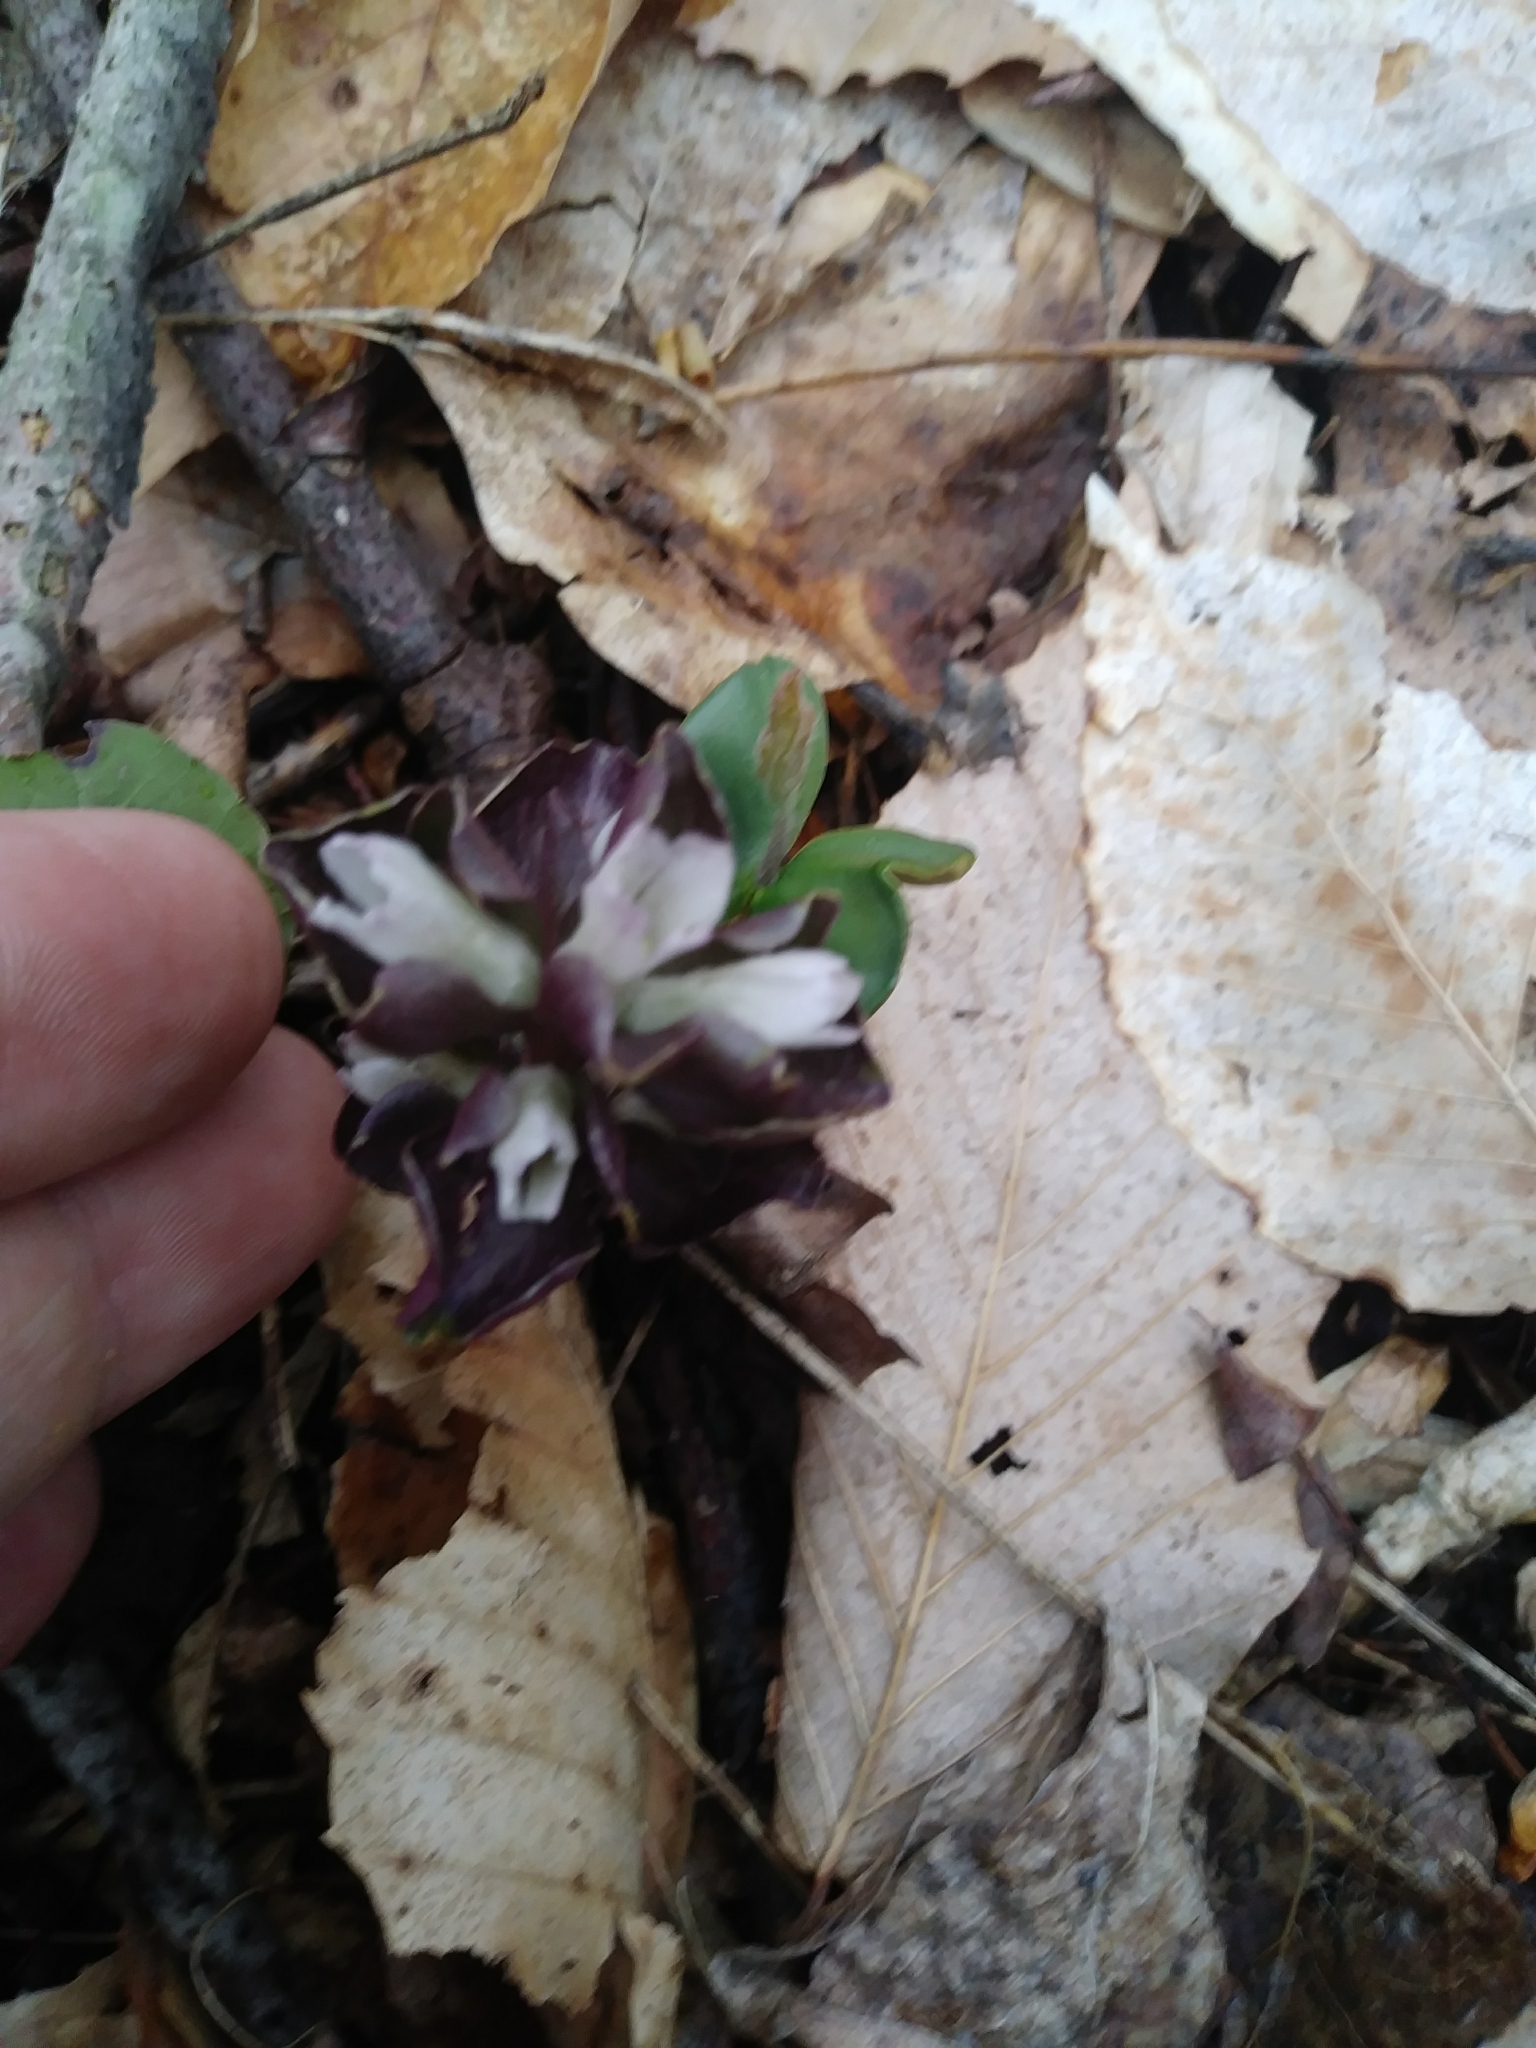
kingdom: Plantae
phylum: Tracheophyta
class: Magnoliopsida
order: Gentianales
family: Gentianaceae
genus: Obolaria
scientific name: Obolaria virginica
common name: Pennywort
